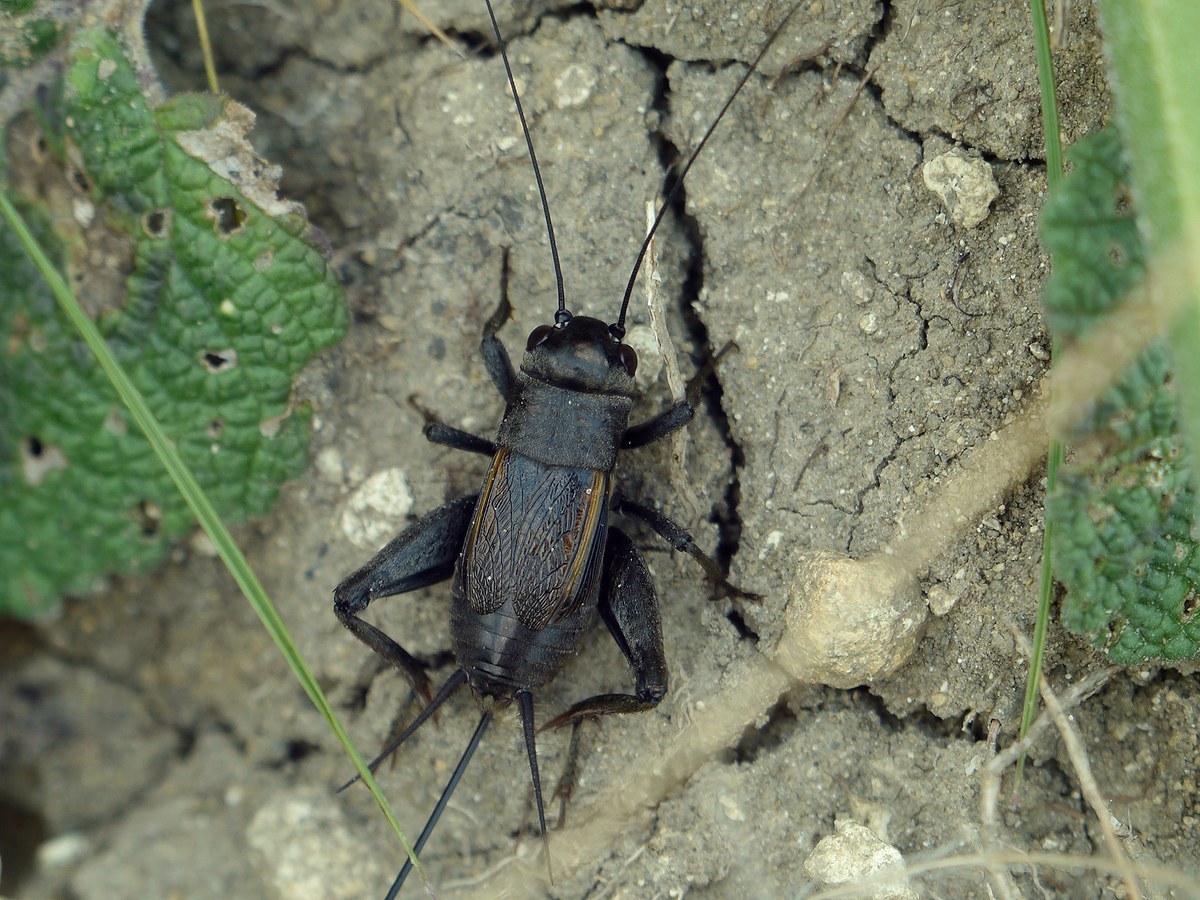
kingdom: Animalia
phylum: Arthropoda
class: Insecta
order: Orthoptera
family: Gryllidae
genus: Melanogryllus
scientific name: Melanogryllus desertus
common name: Desert cricket
